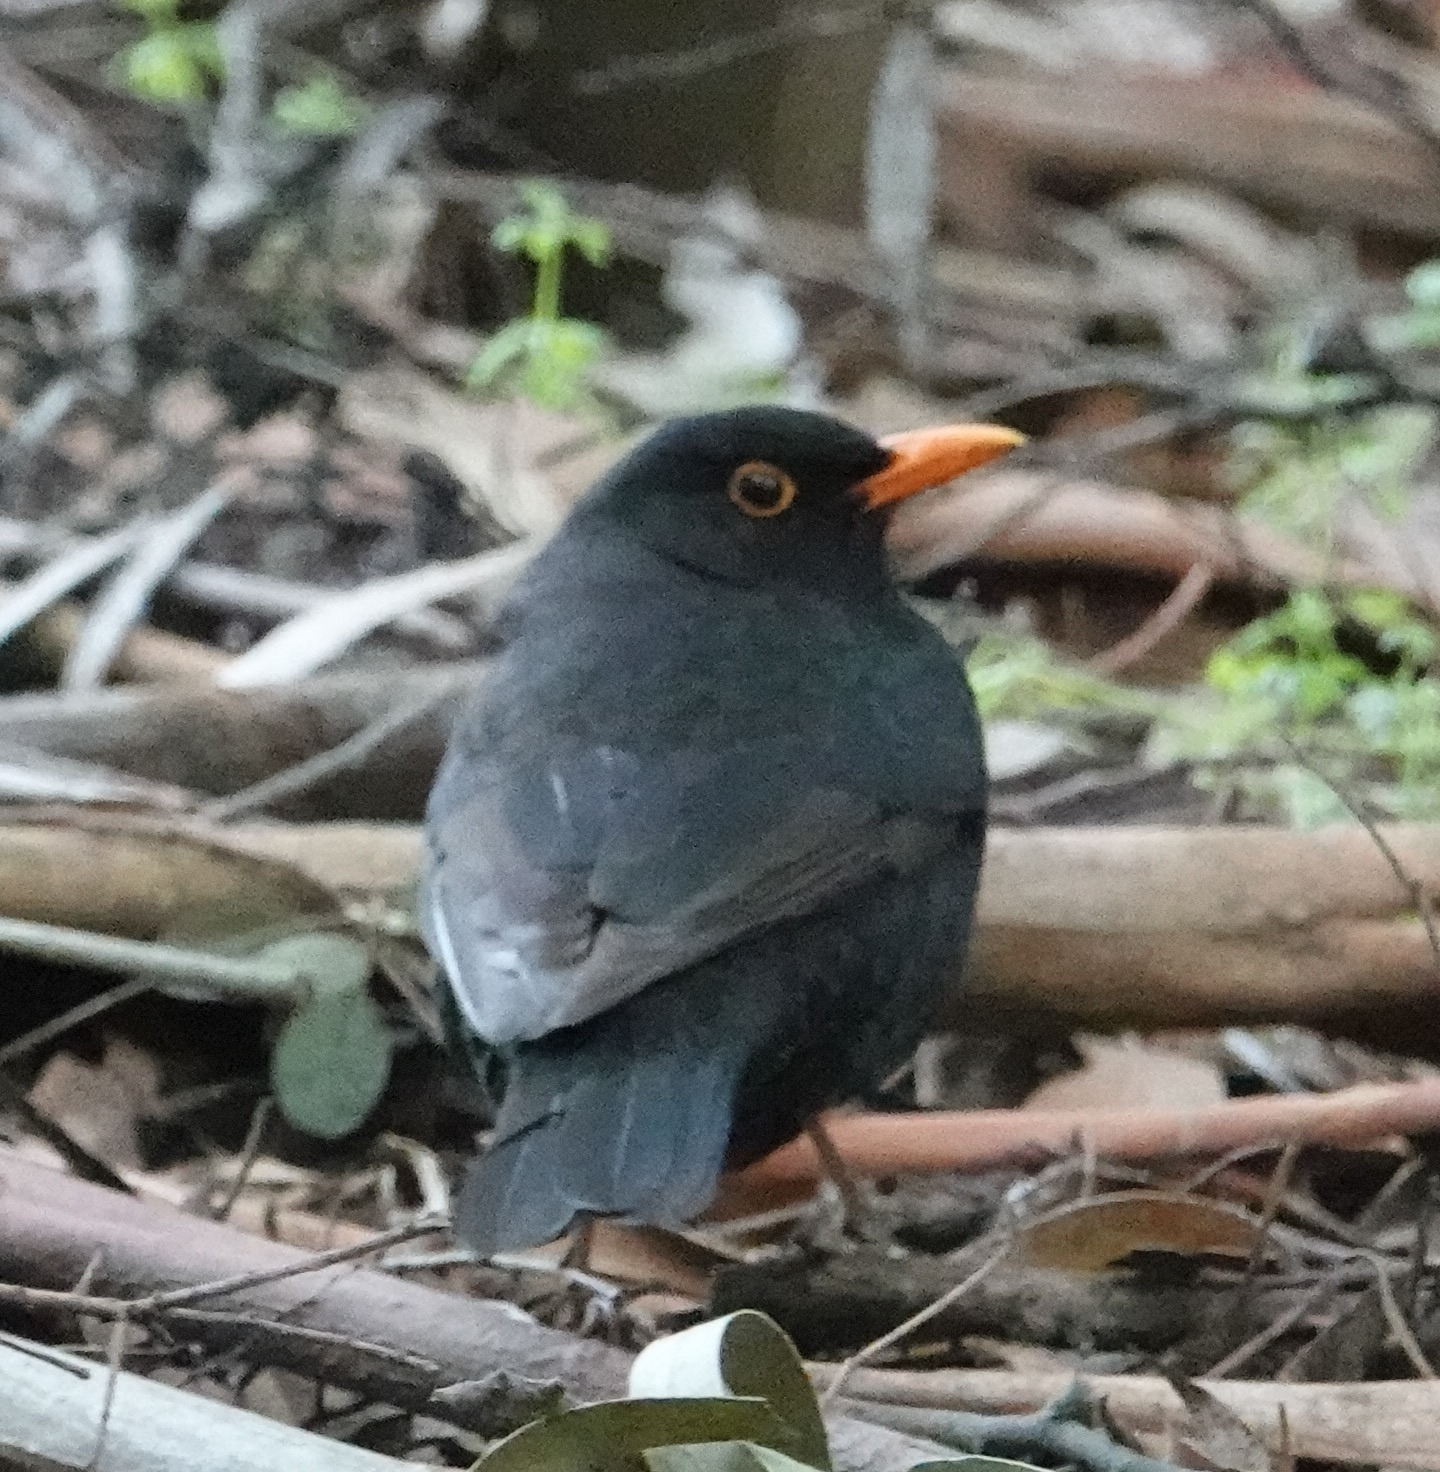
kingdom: Animalia
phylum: Chordata
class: Aves
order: Passeriformes
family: Turdidae
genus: Turdus
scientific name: Turdus merula
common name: Common blackbird
